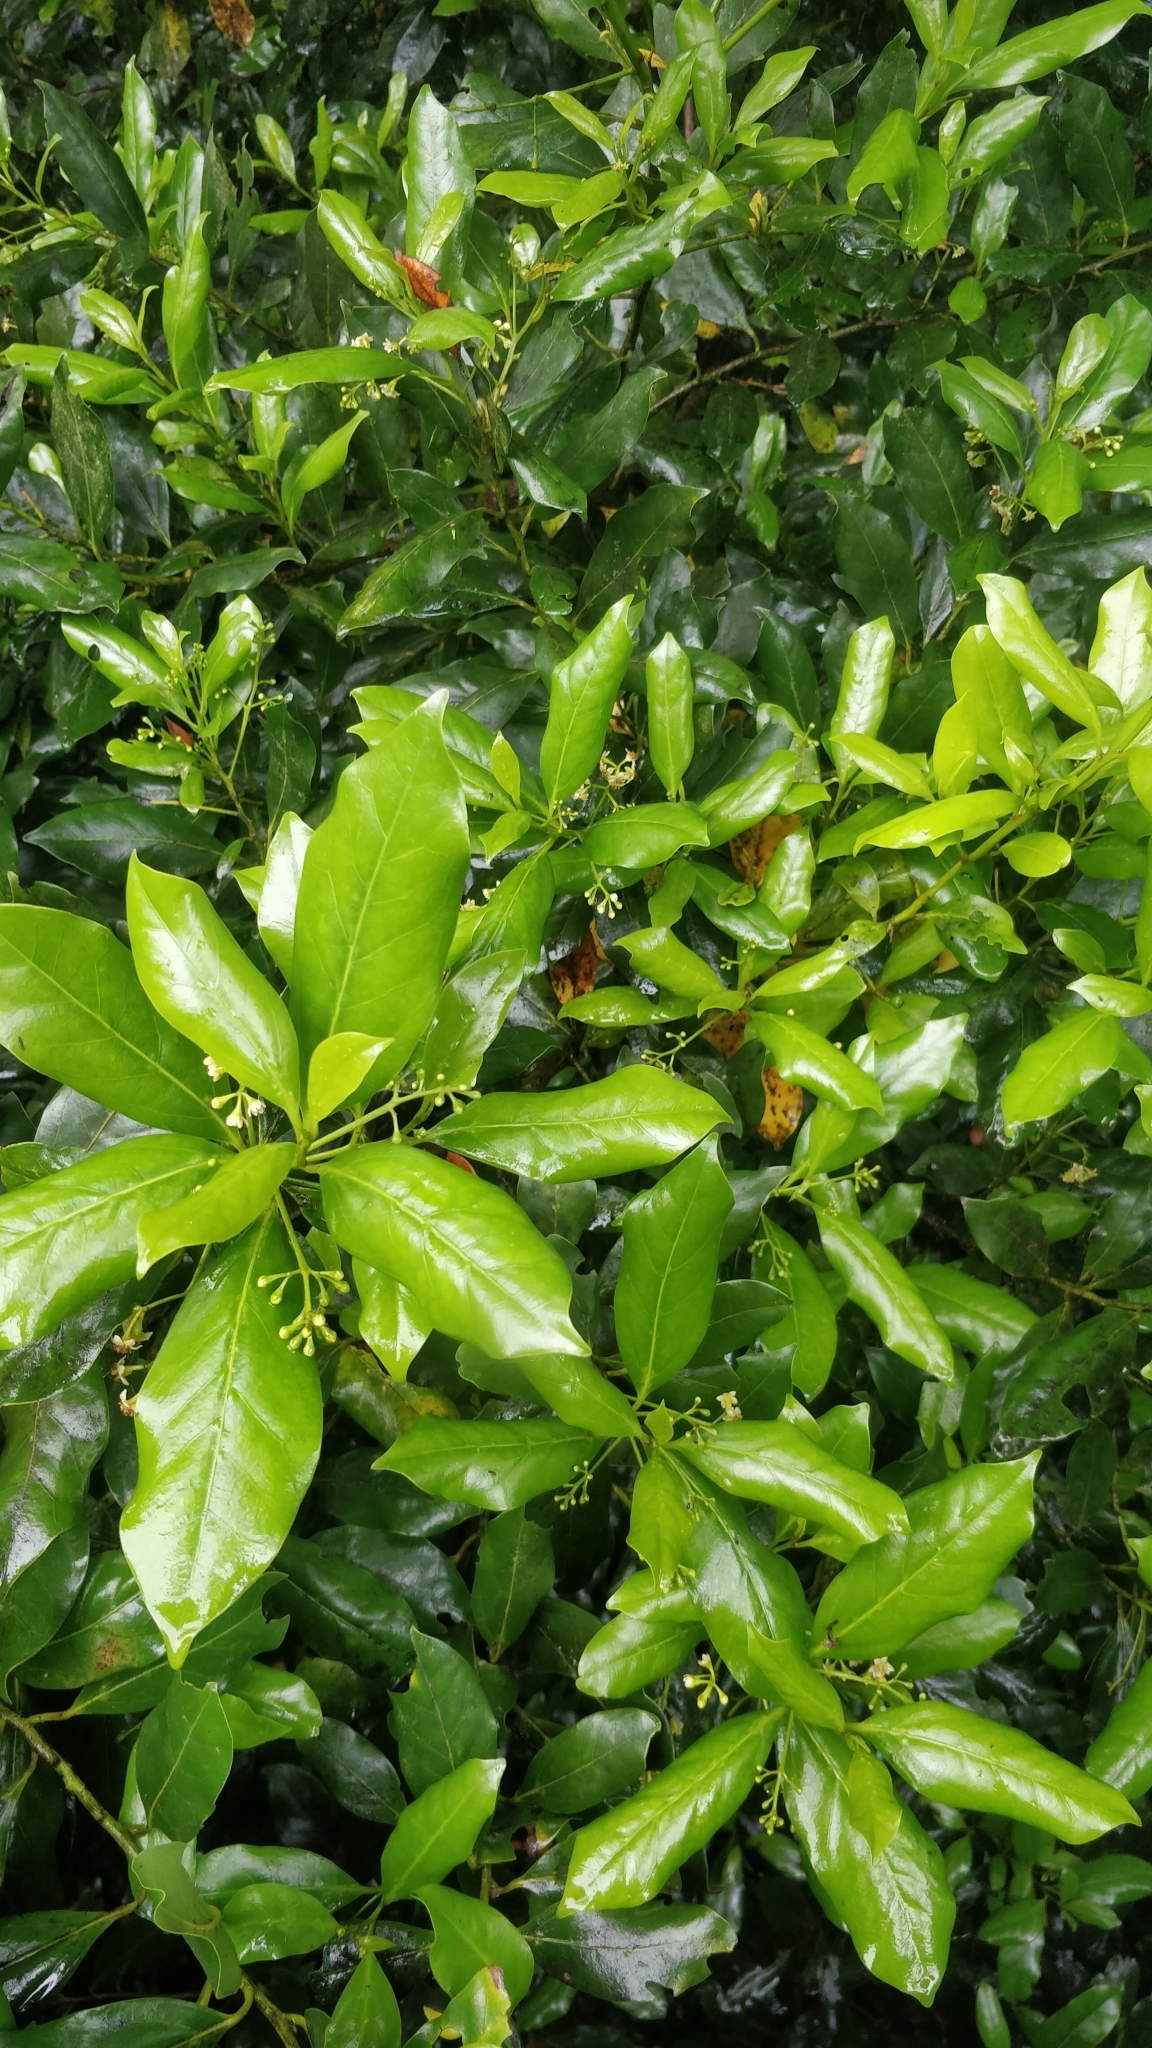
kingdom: Plantae
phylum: Tracheophyta
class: Magnoliopsida
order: Laurales
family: Lauraceae
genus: Mespilodaphne
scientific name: Mespilodaphne foetens
